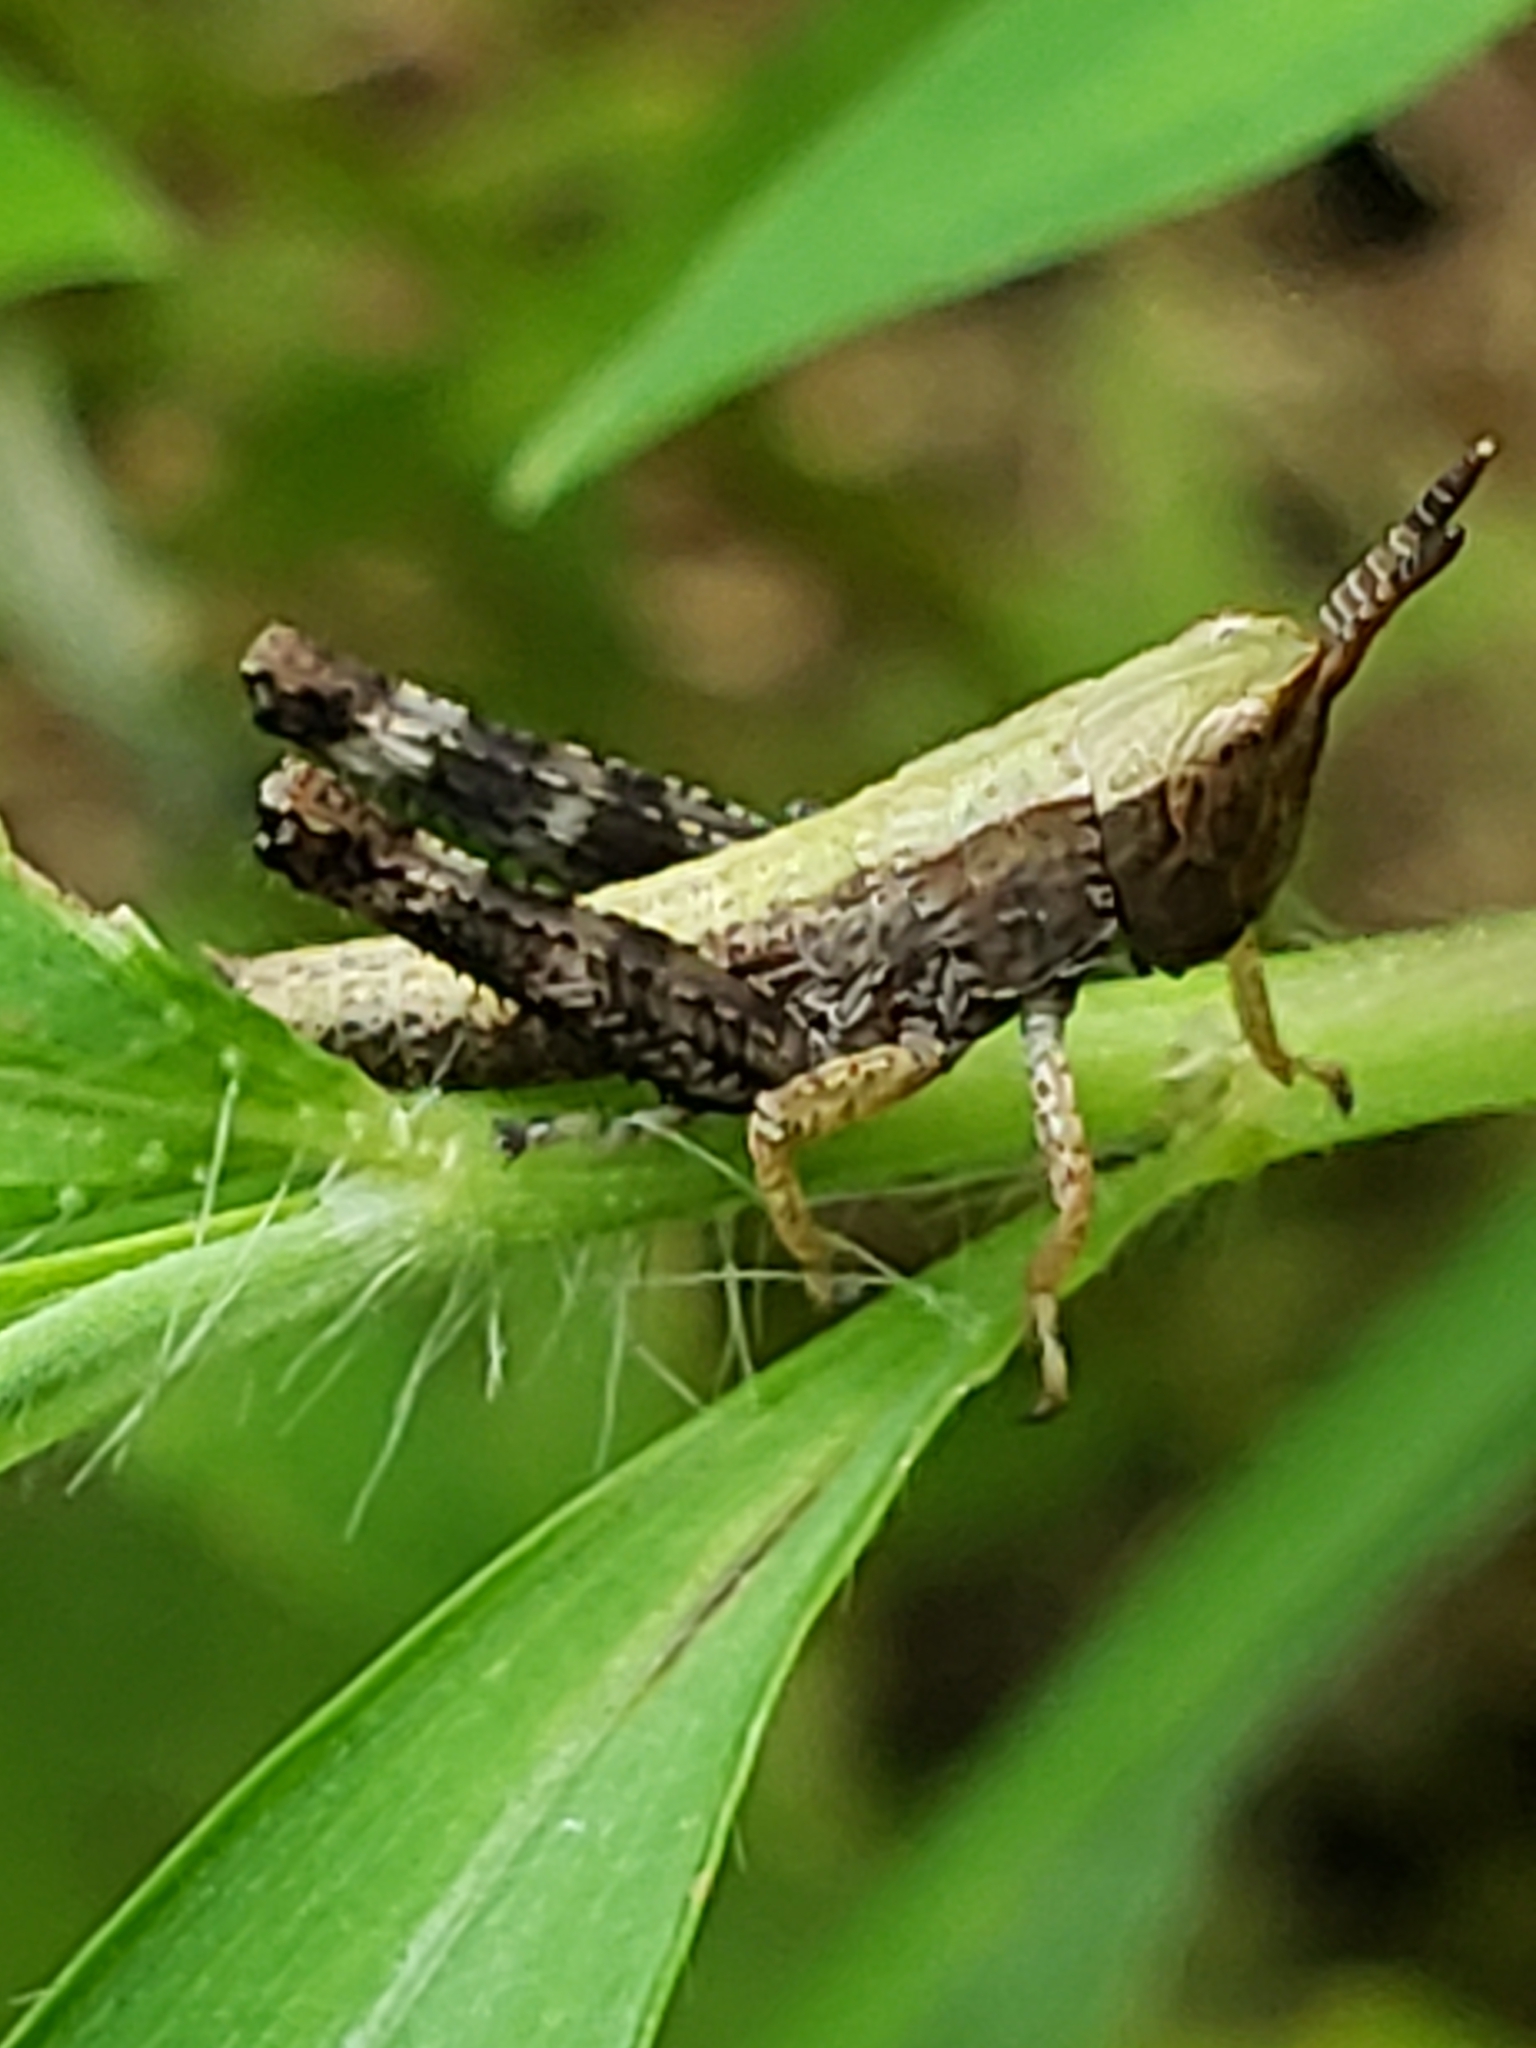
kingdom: Animalia
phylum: Arthropoda
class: Insecta
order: Orthoptera
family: Acrididae
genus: Dichromorpha
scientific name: Dichromorpha viridis
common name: Short-winged green grasshopper
